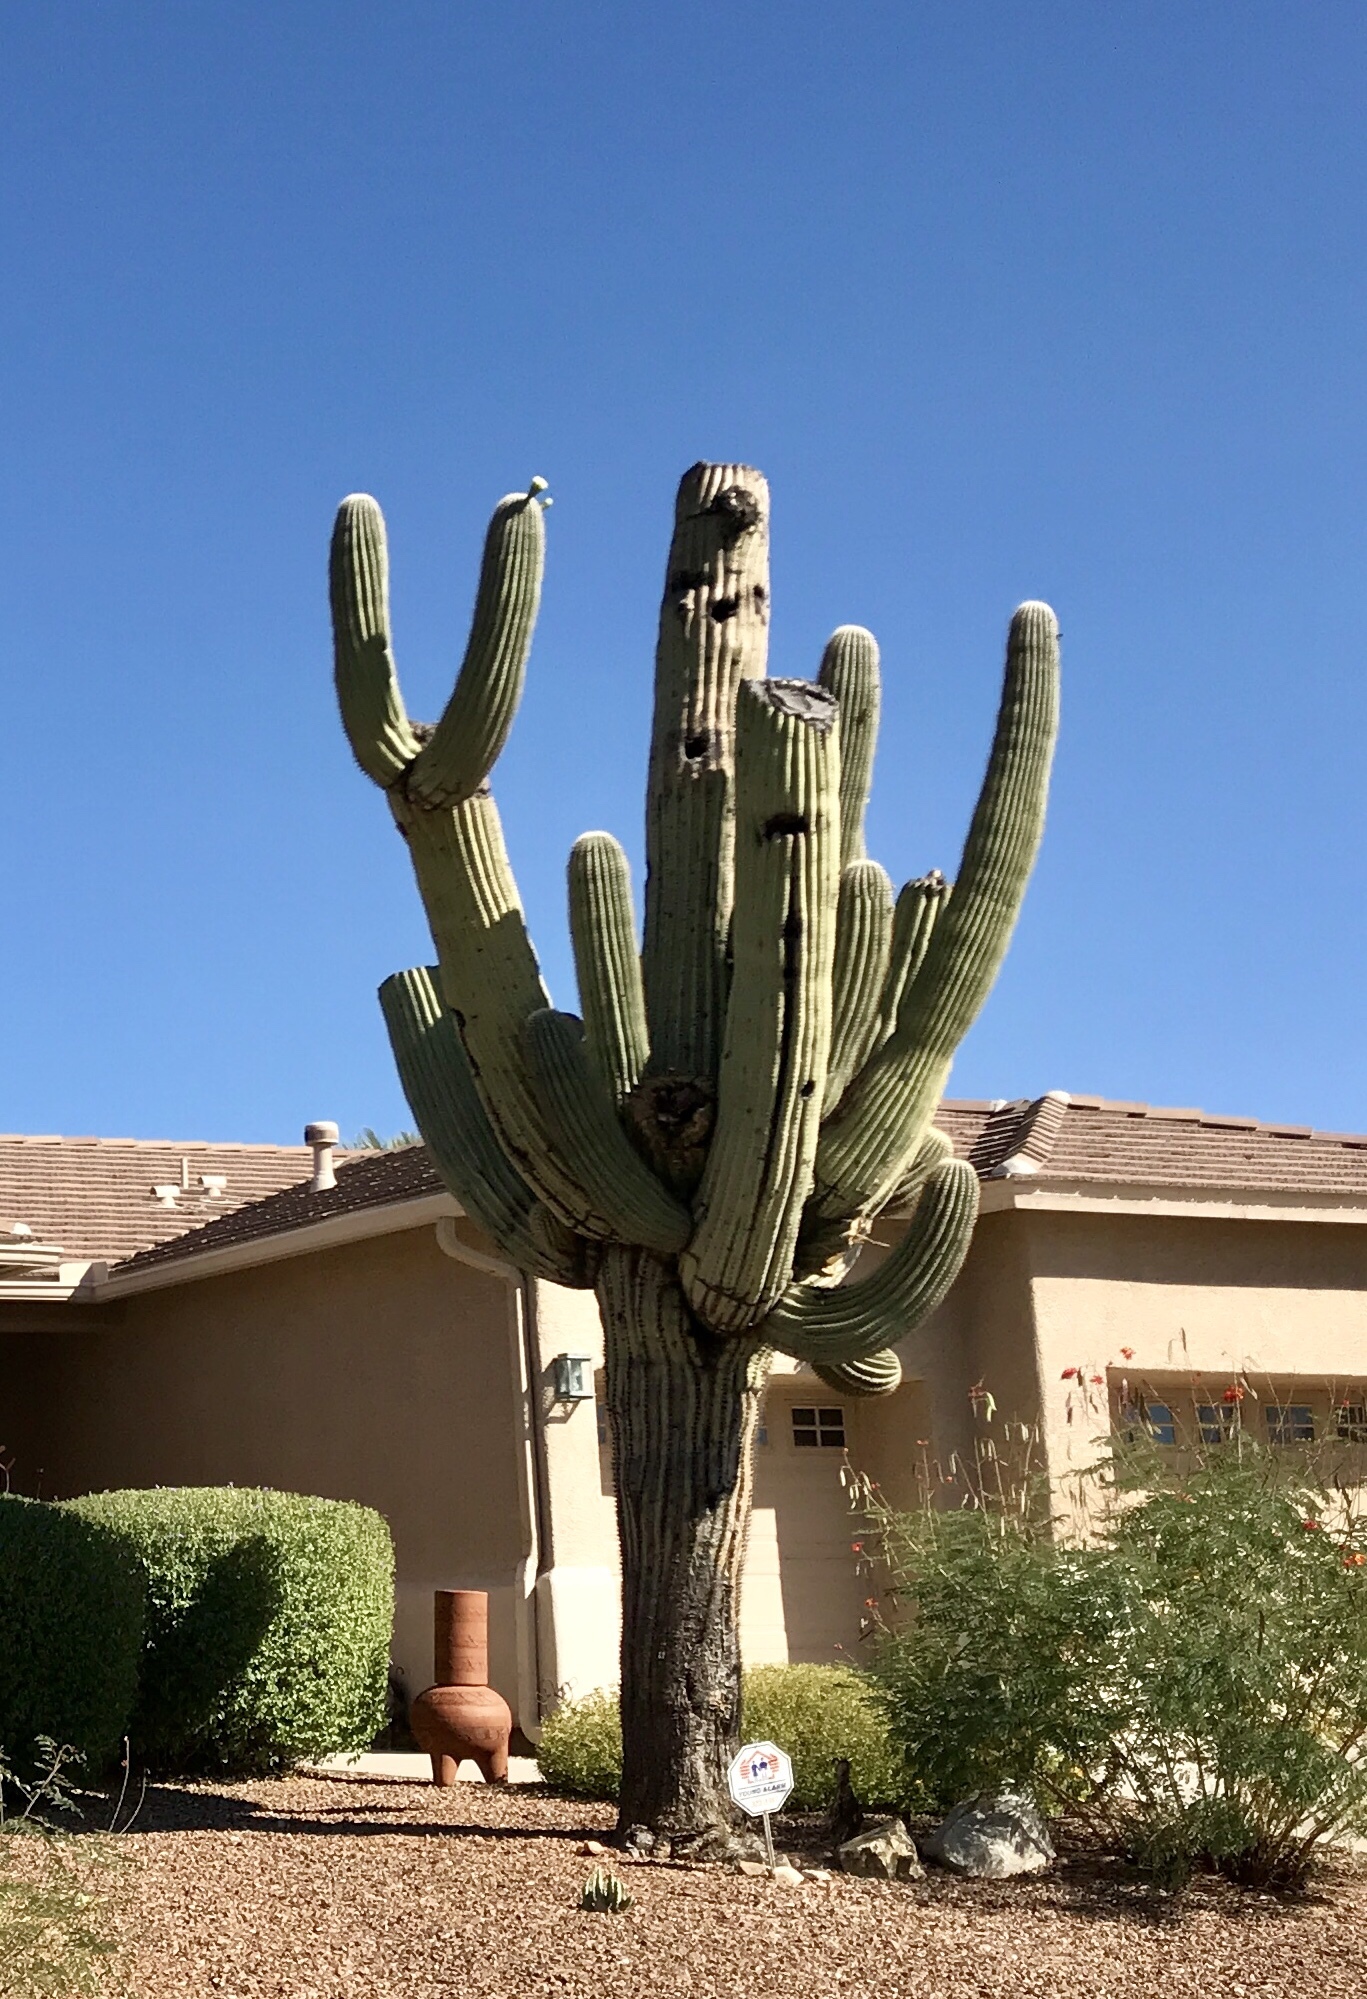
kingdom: Plantae
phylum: Tracheophyta
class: Magnoliopsida
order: Caryophyllales
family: Cactaceae
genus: Carnegiea
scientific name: Carnegiea gigantea
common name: Saguaro
